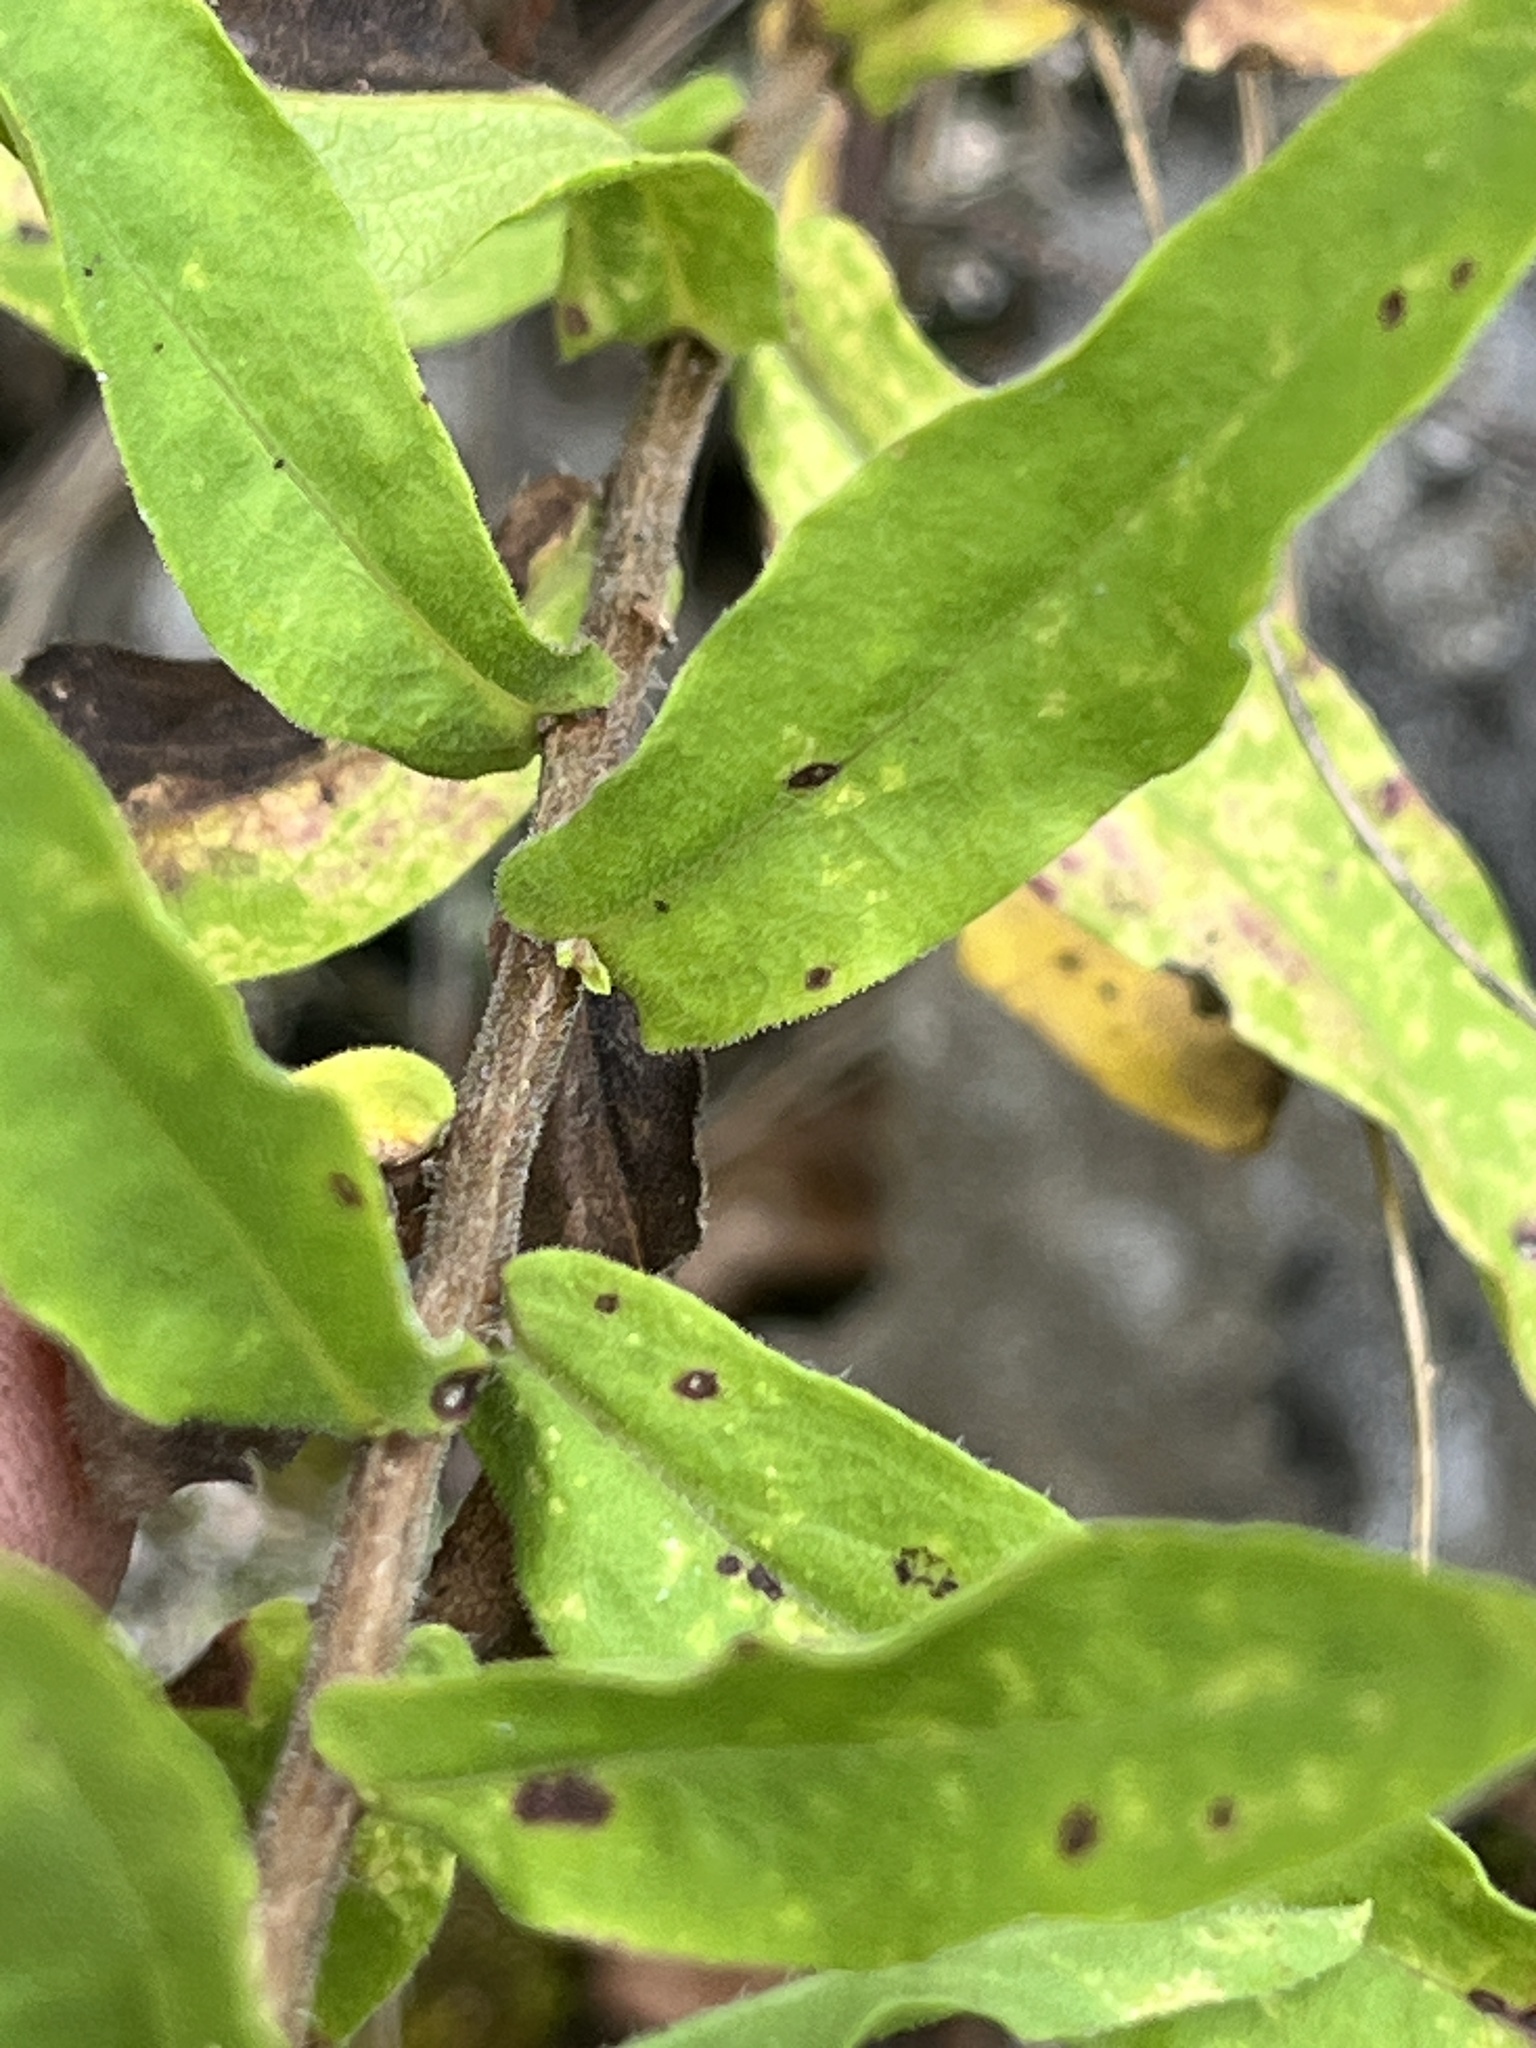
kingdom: Plantae
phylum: Tracheophyta
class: Magnoliopsida
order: Asterales
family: Asteraceae
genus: Symphyotrichum
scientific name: Symphyotrichum oblongifolium
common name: Aromatic aster
